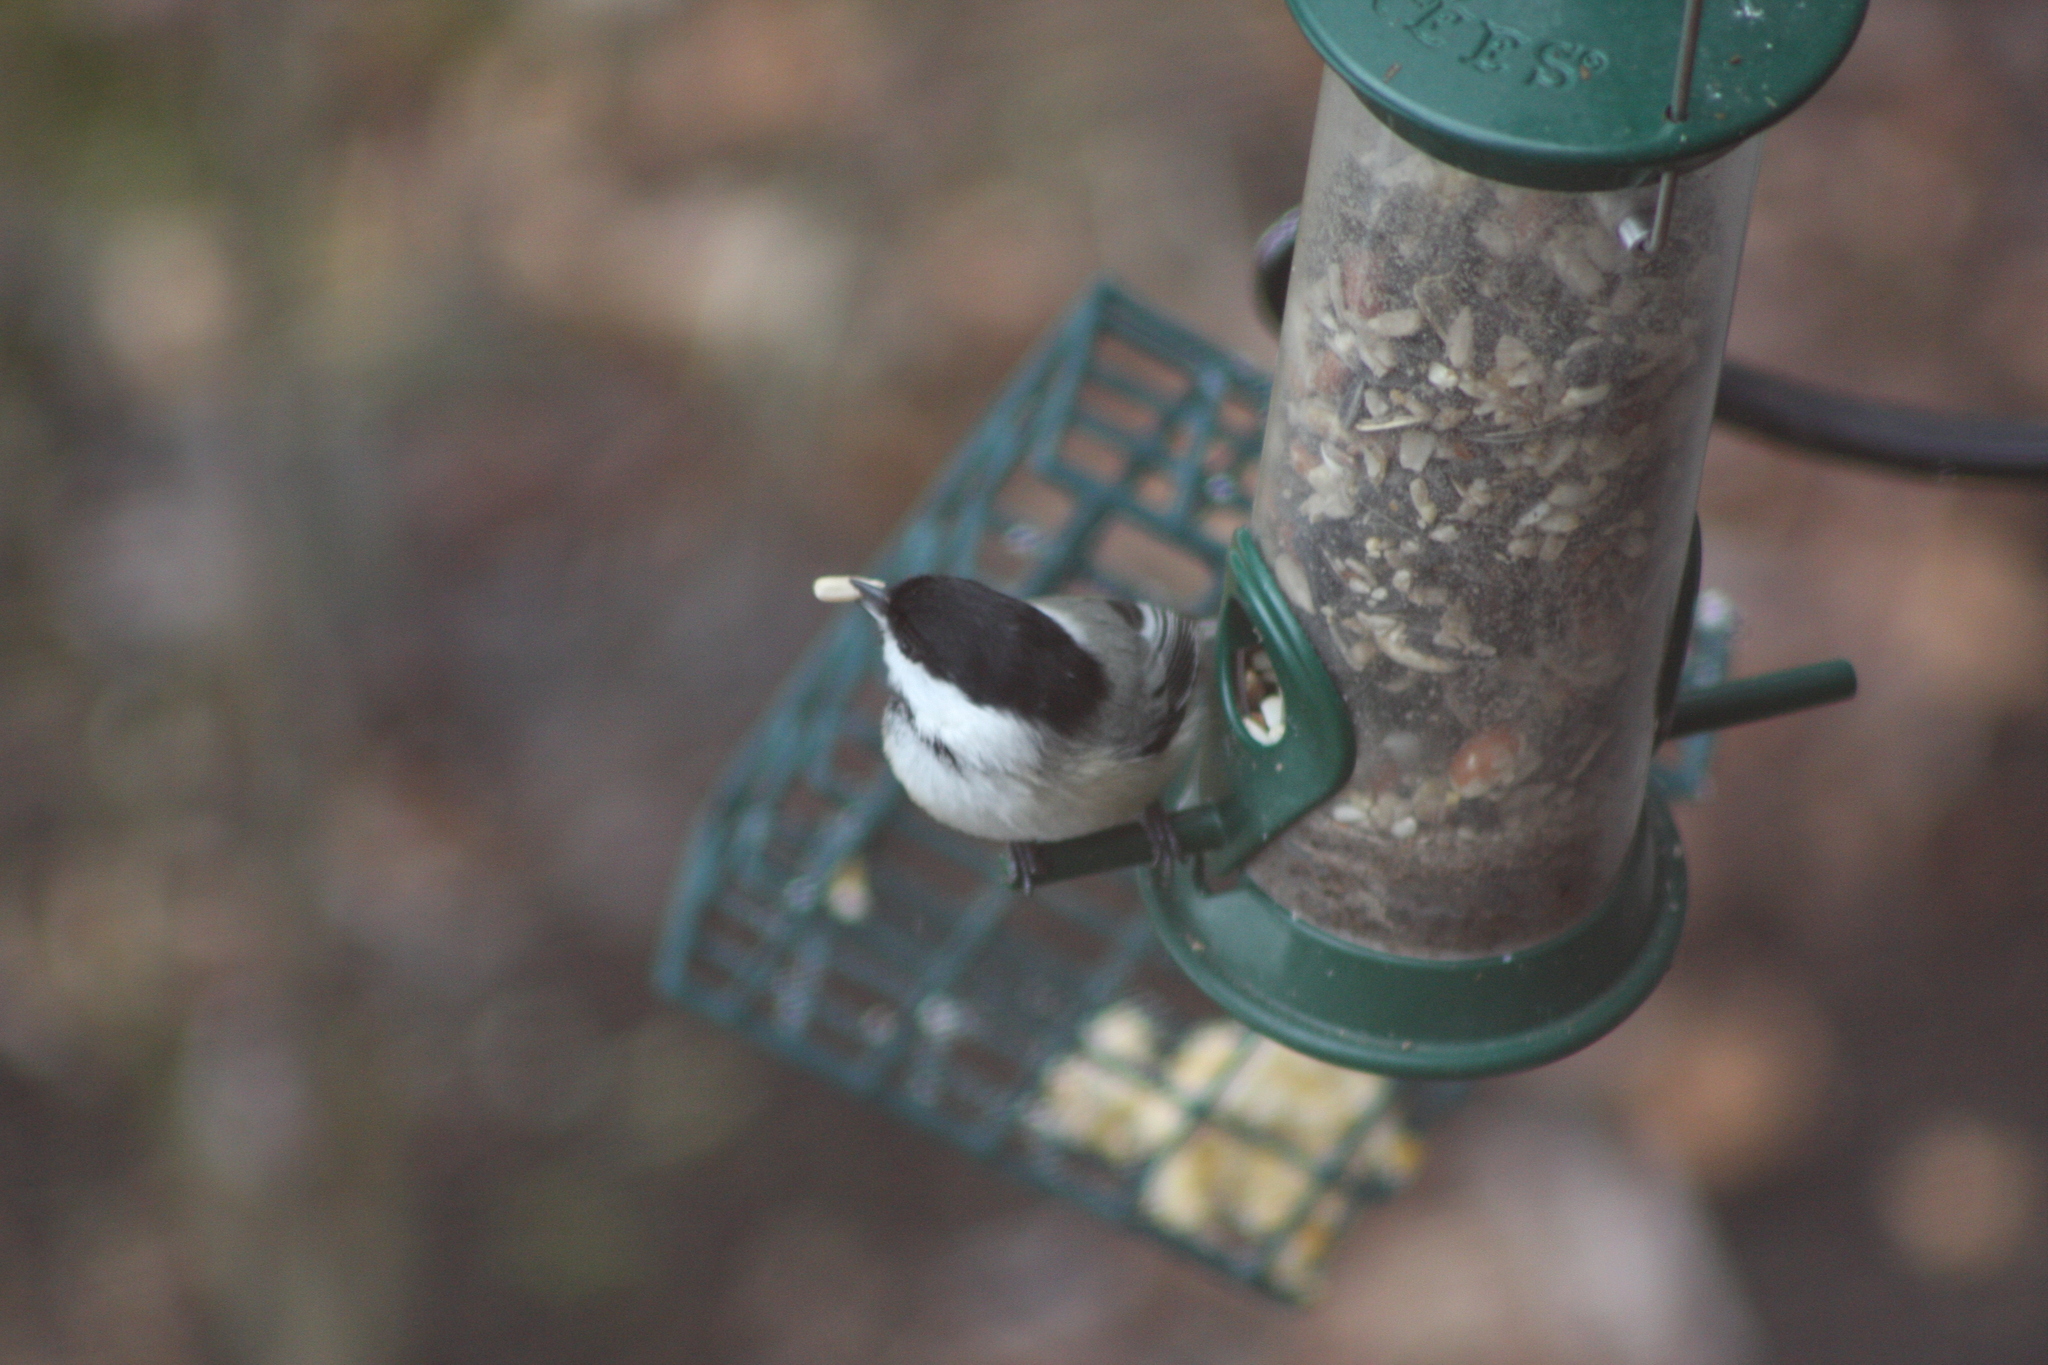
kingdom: Animalia
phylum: Chordata
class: Aves
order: Passeriformes
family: Paridae
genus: Poecile
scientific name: Poecile atricapillus
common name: Black-capped chickadee
